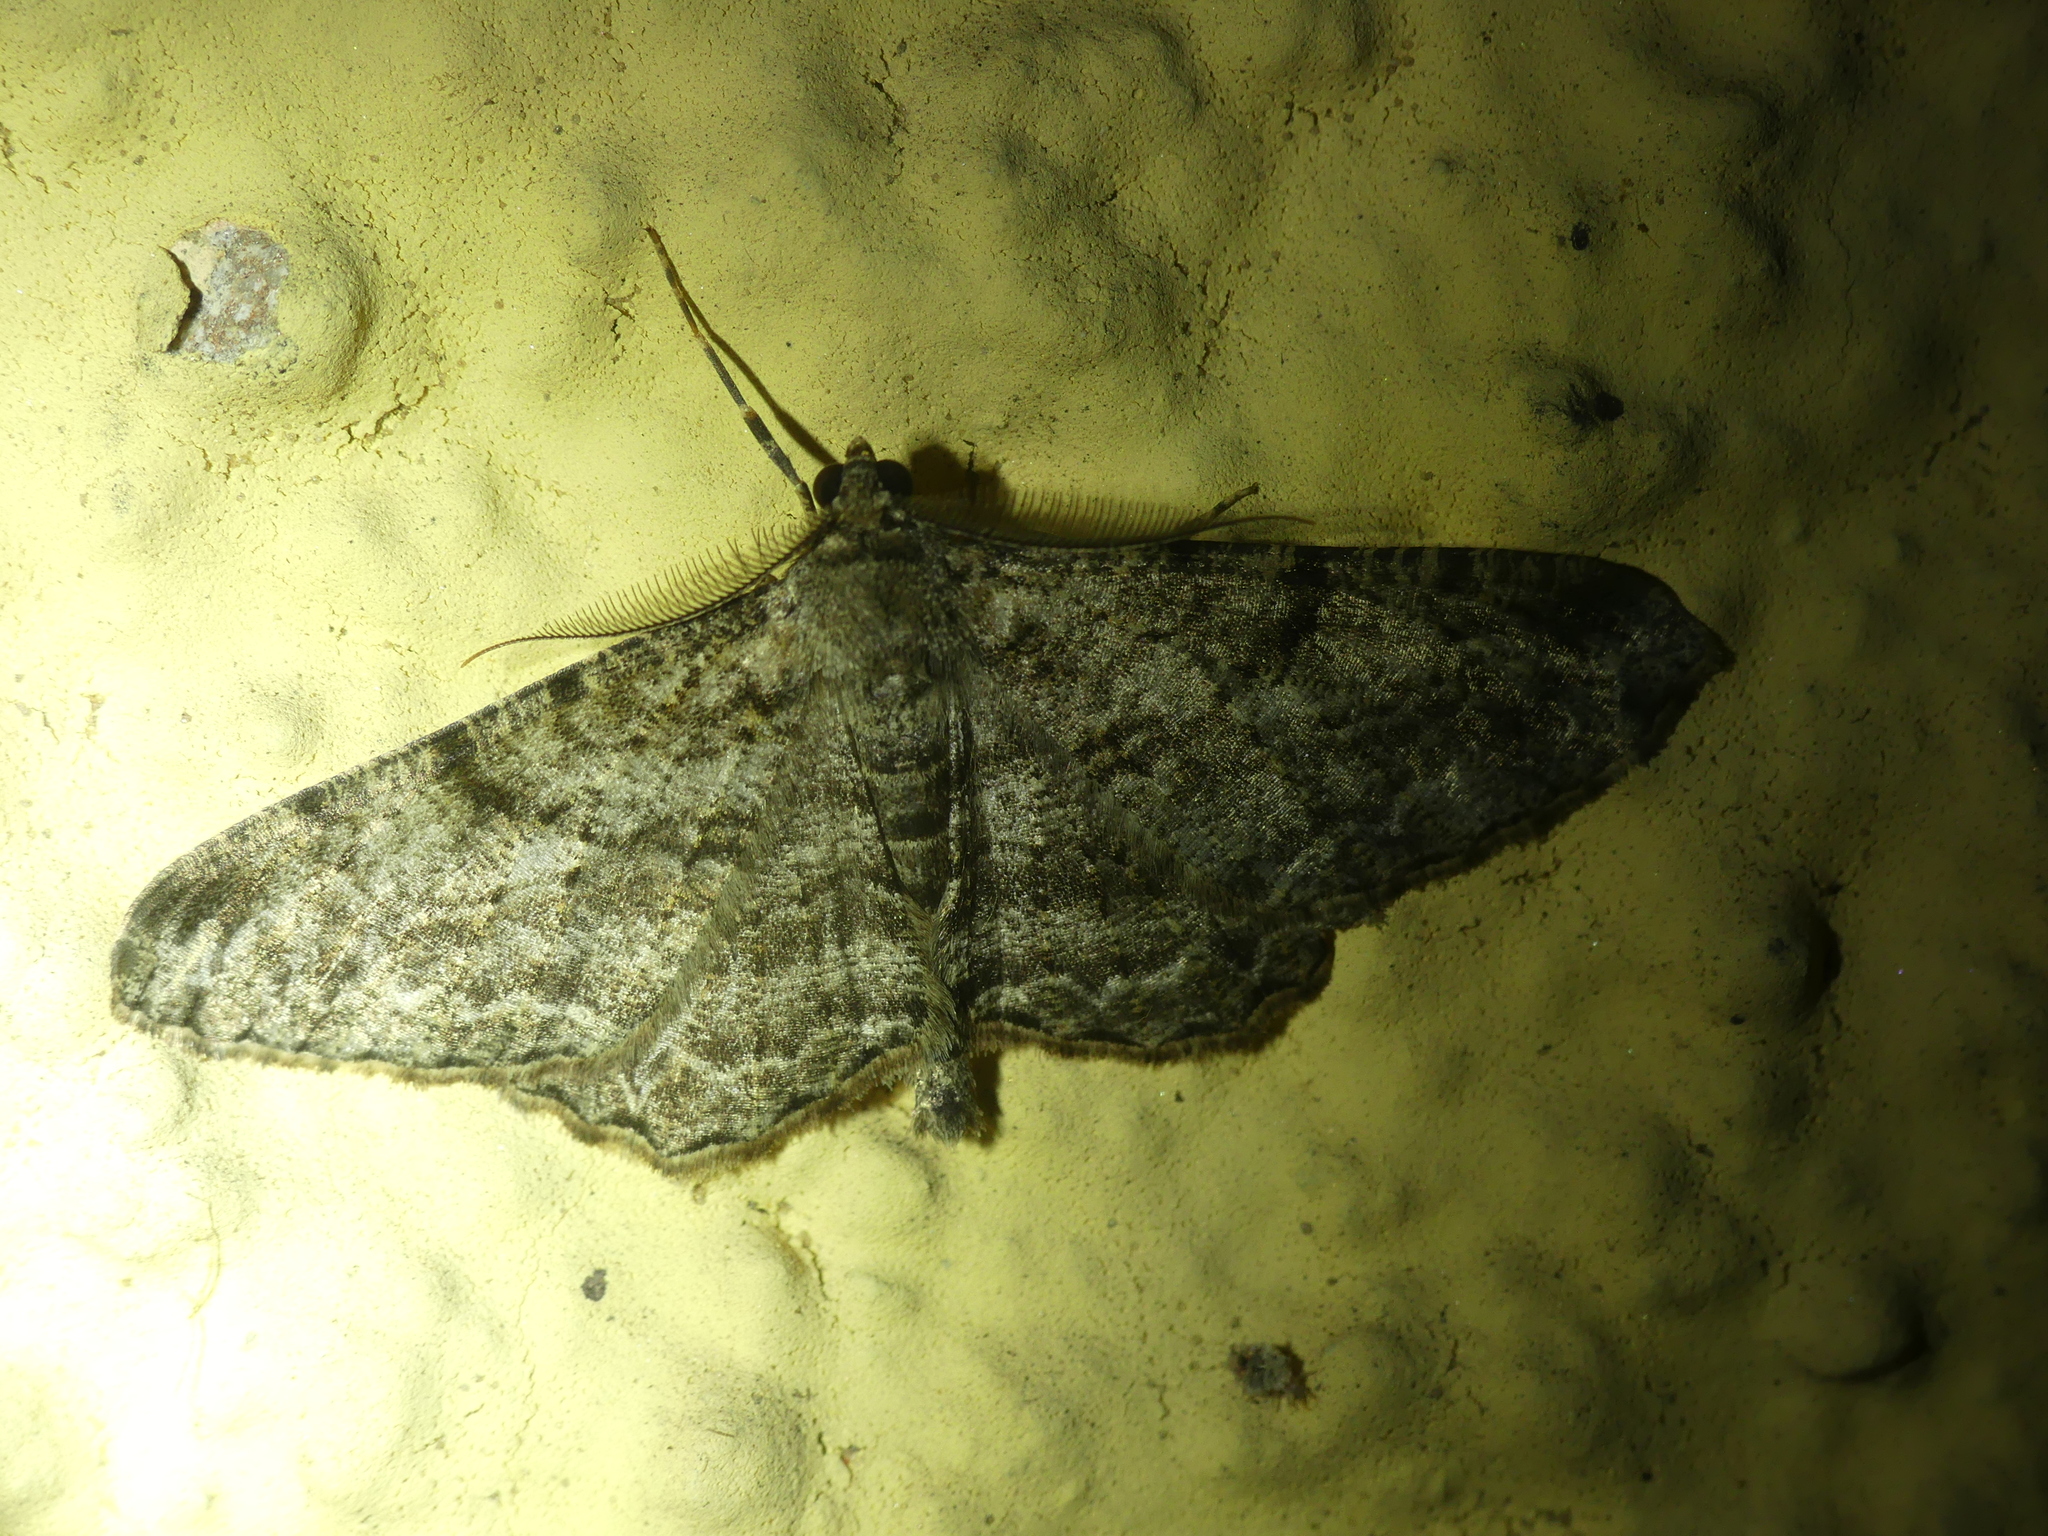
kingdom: Animalia
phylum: Arthropoda
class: Insecta
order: Lepidoptera
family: Geometridae
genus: Peribatodes
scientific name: Peribatodes rhomboidaria
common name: Willow beauty
